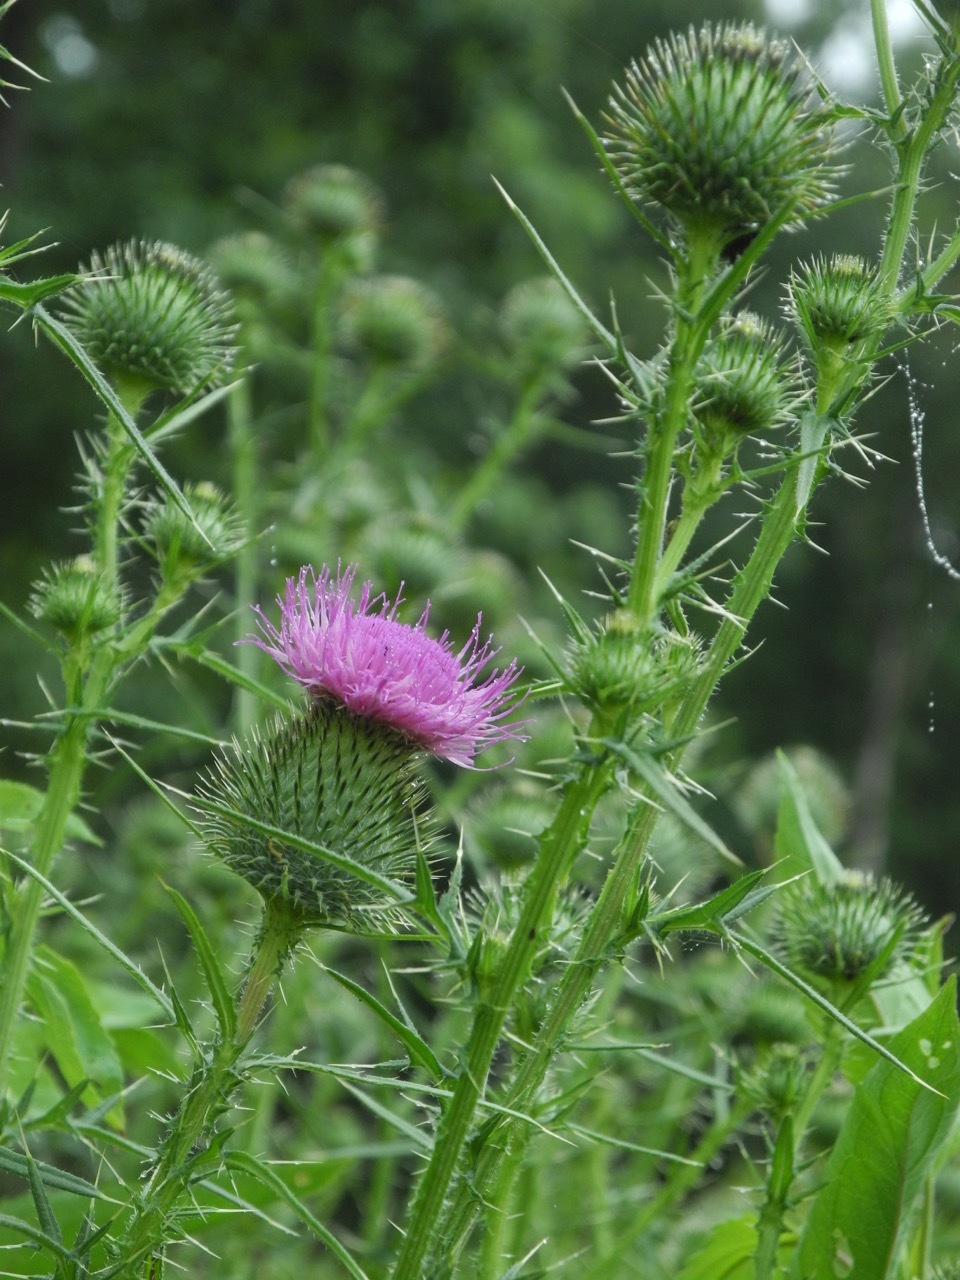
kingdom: Plantae
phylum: Tracheophyta
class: Magnoliopsida
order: Asterales
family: Asteraceae
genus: Cirsium
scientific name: Cirsium vulgare
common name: Bull thistle
